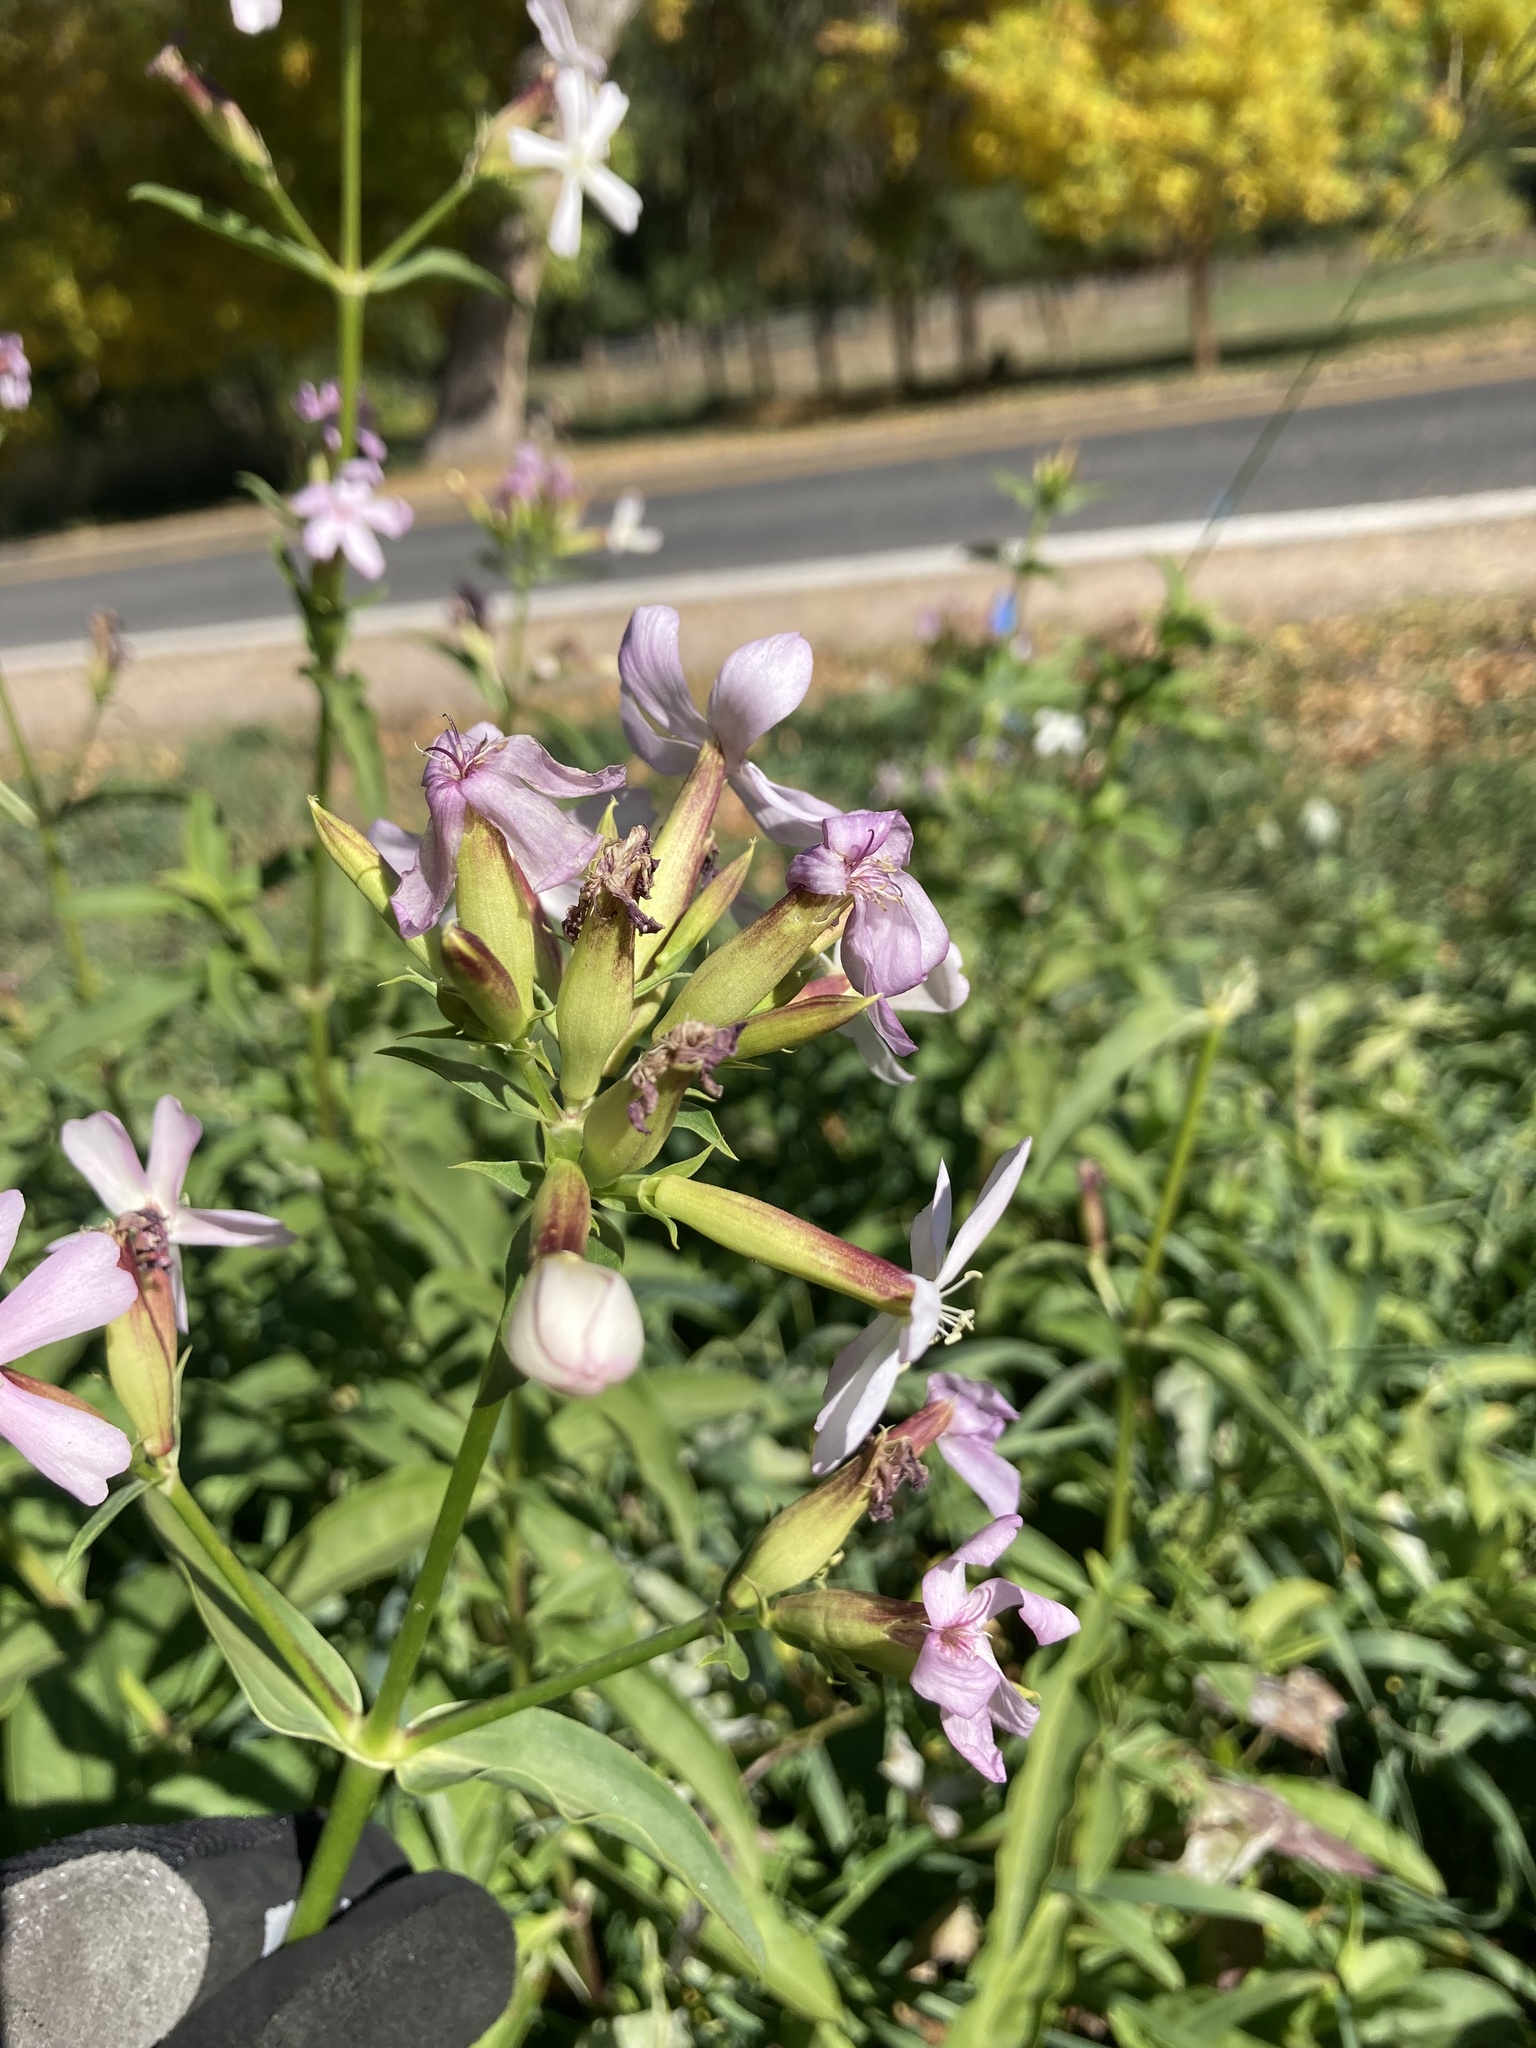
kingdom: Plantae
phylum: Tracheophyta
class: Magnoliopsida
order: Caryophyllales
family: Caryophyllaceae
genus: Saponaria
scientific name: Saponaria officinalis
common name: Soapwort
